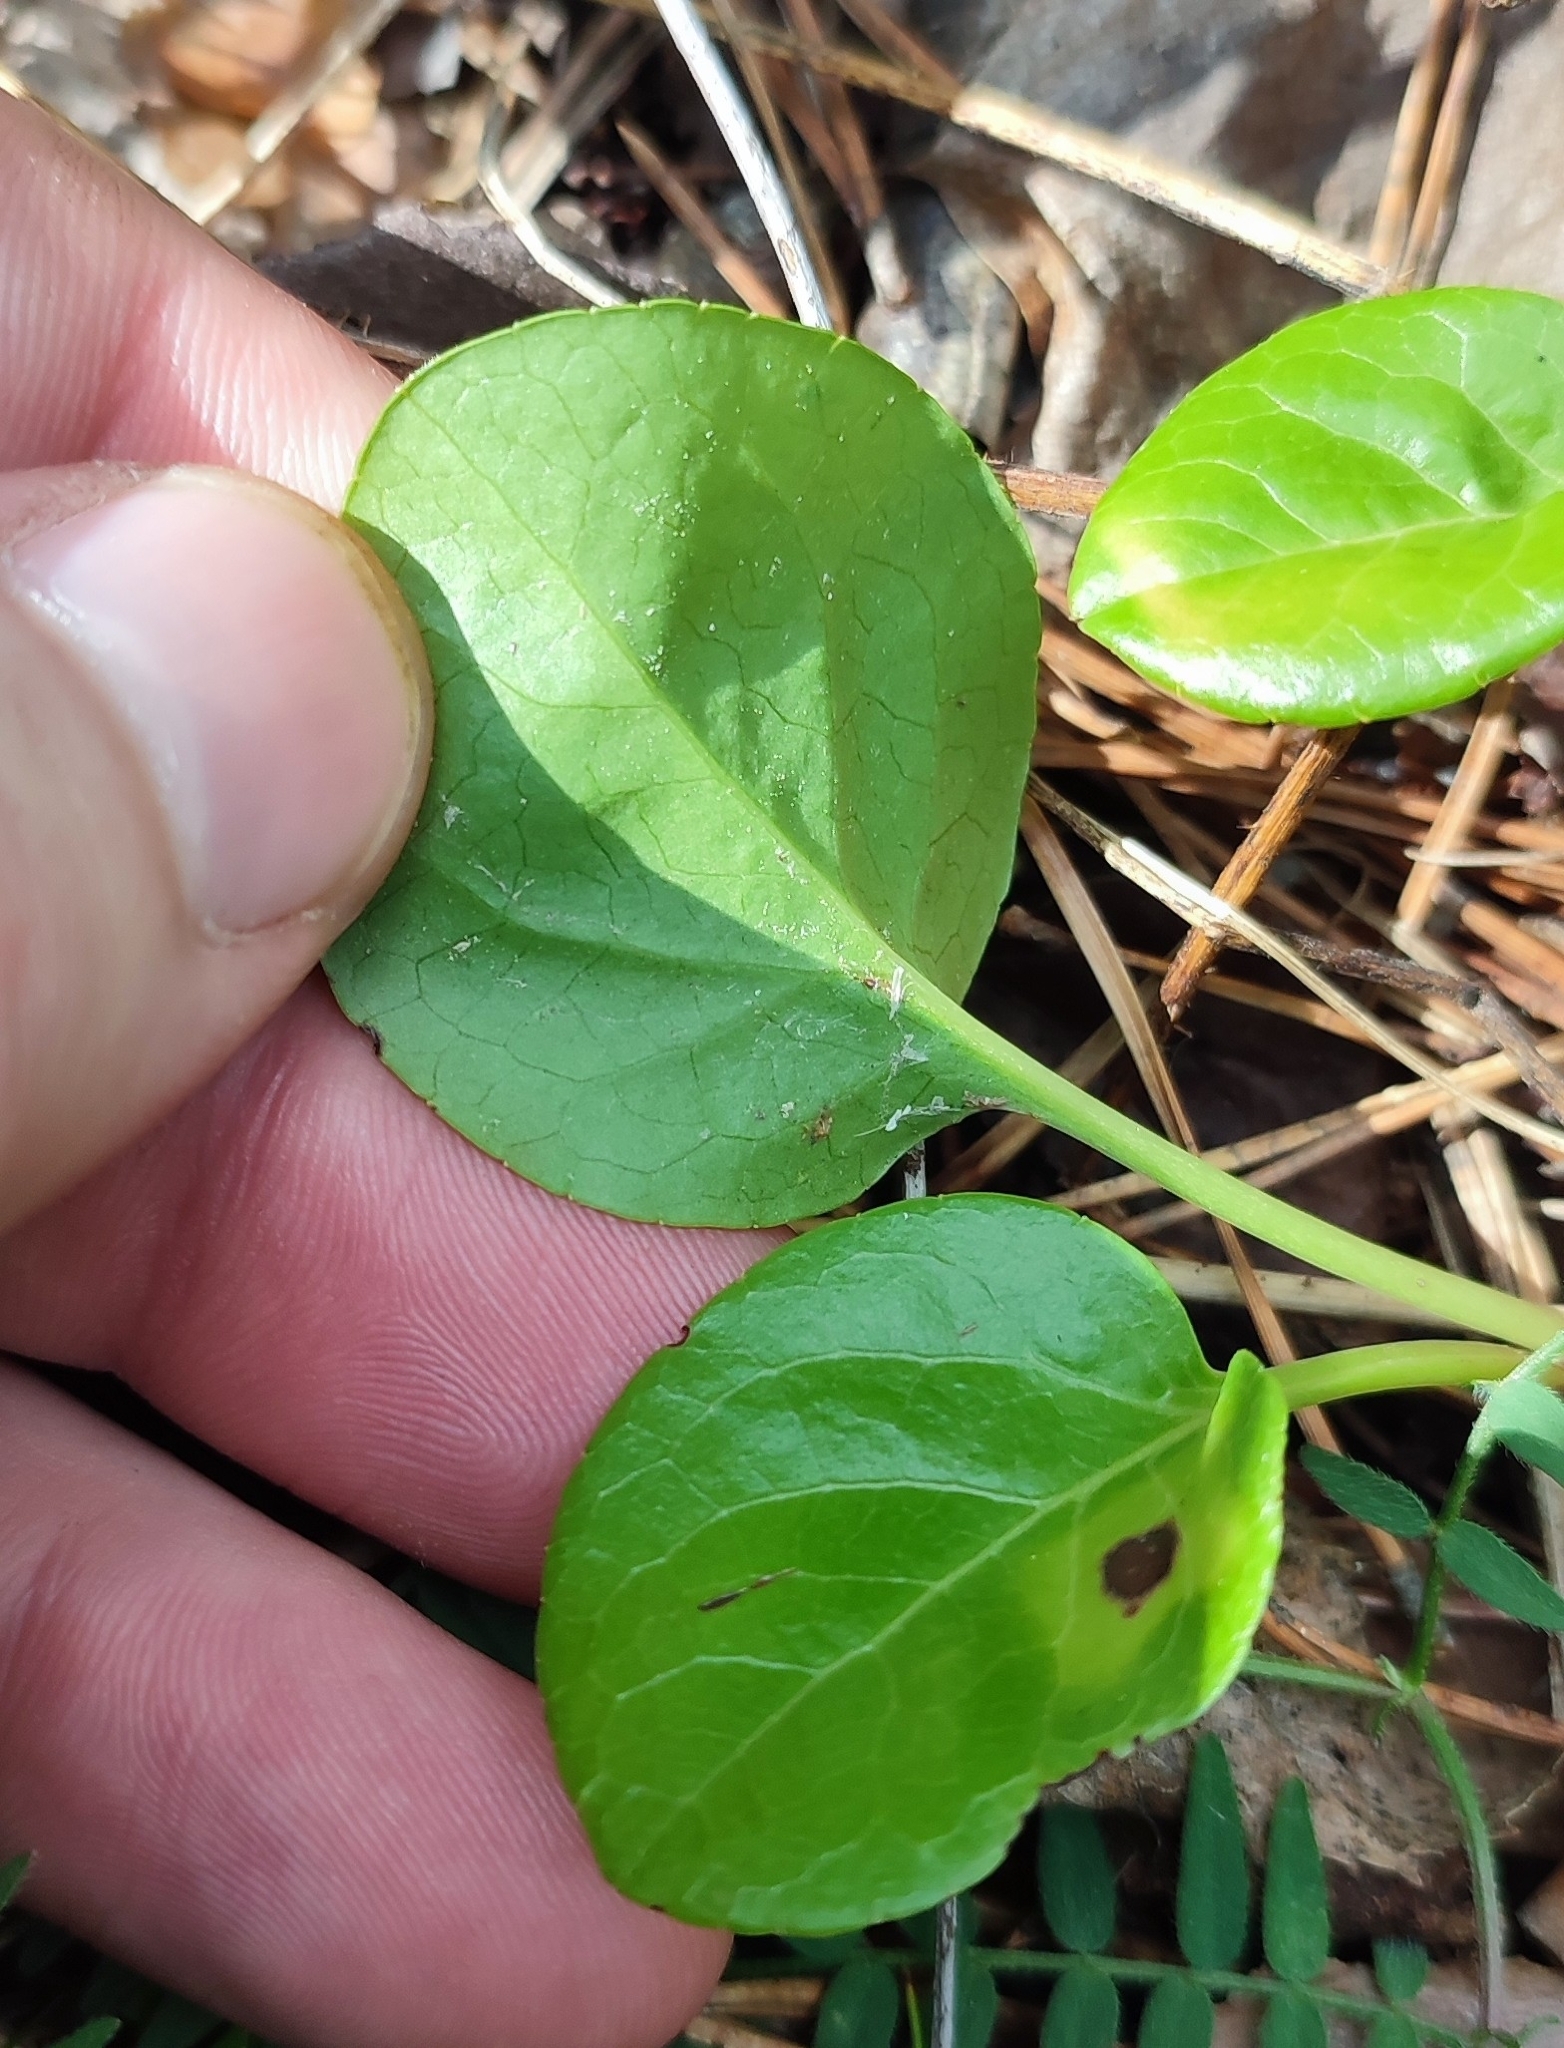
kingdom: Plantae
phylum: Tracheophyta
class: Magnoliopsida
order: Ericales
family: Ericaceae
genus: Pyrola
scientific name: Pyrola rotundifolia
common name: Round-leaved wintergreen
